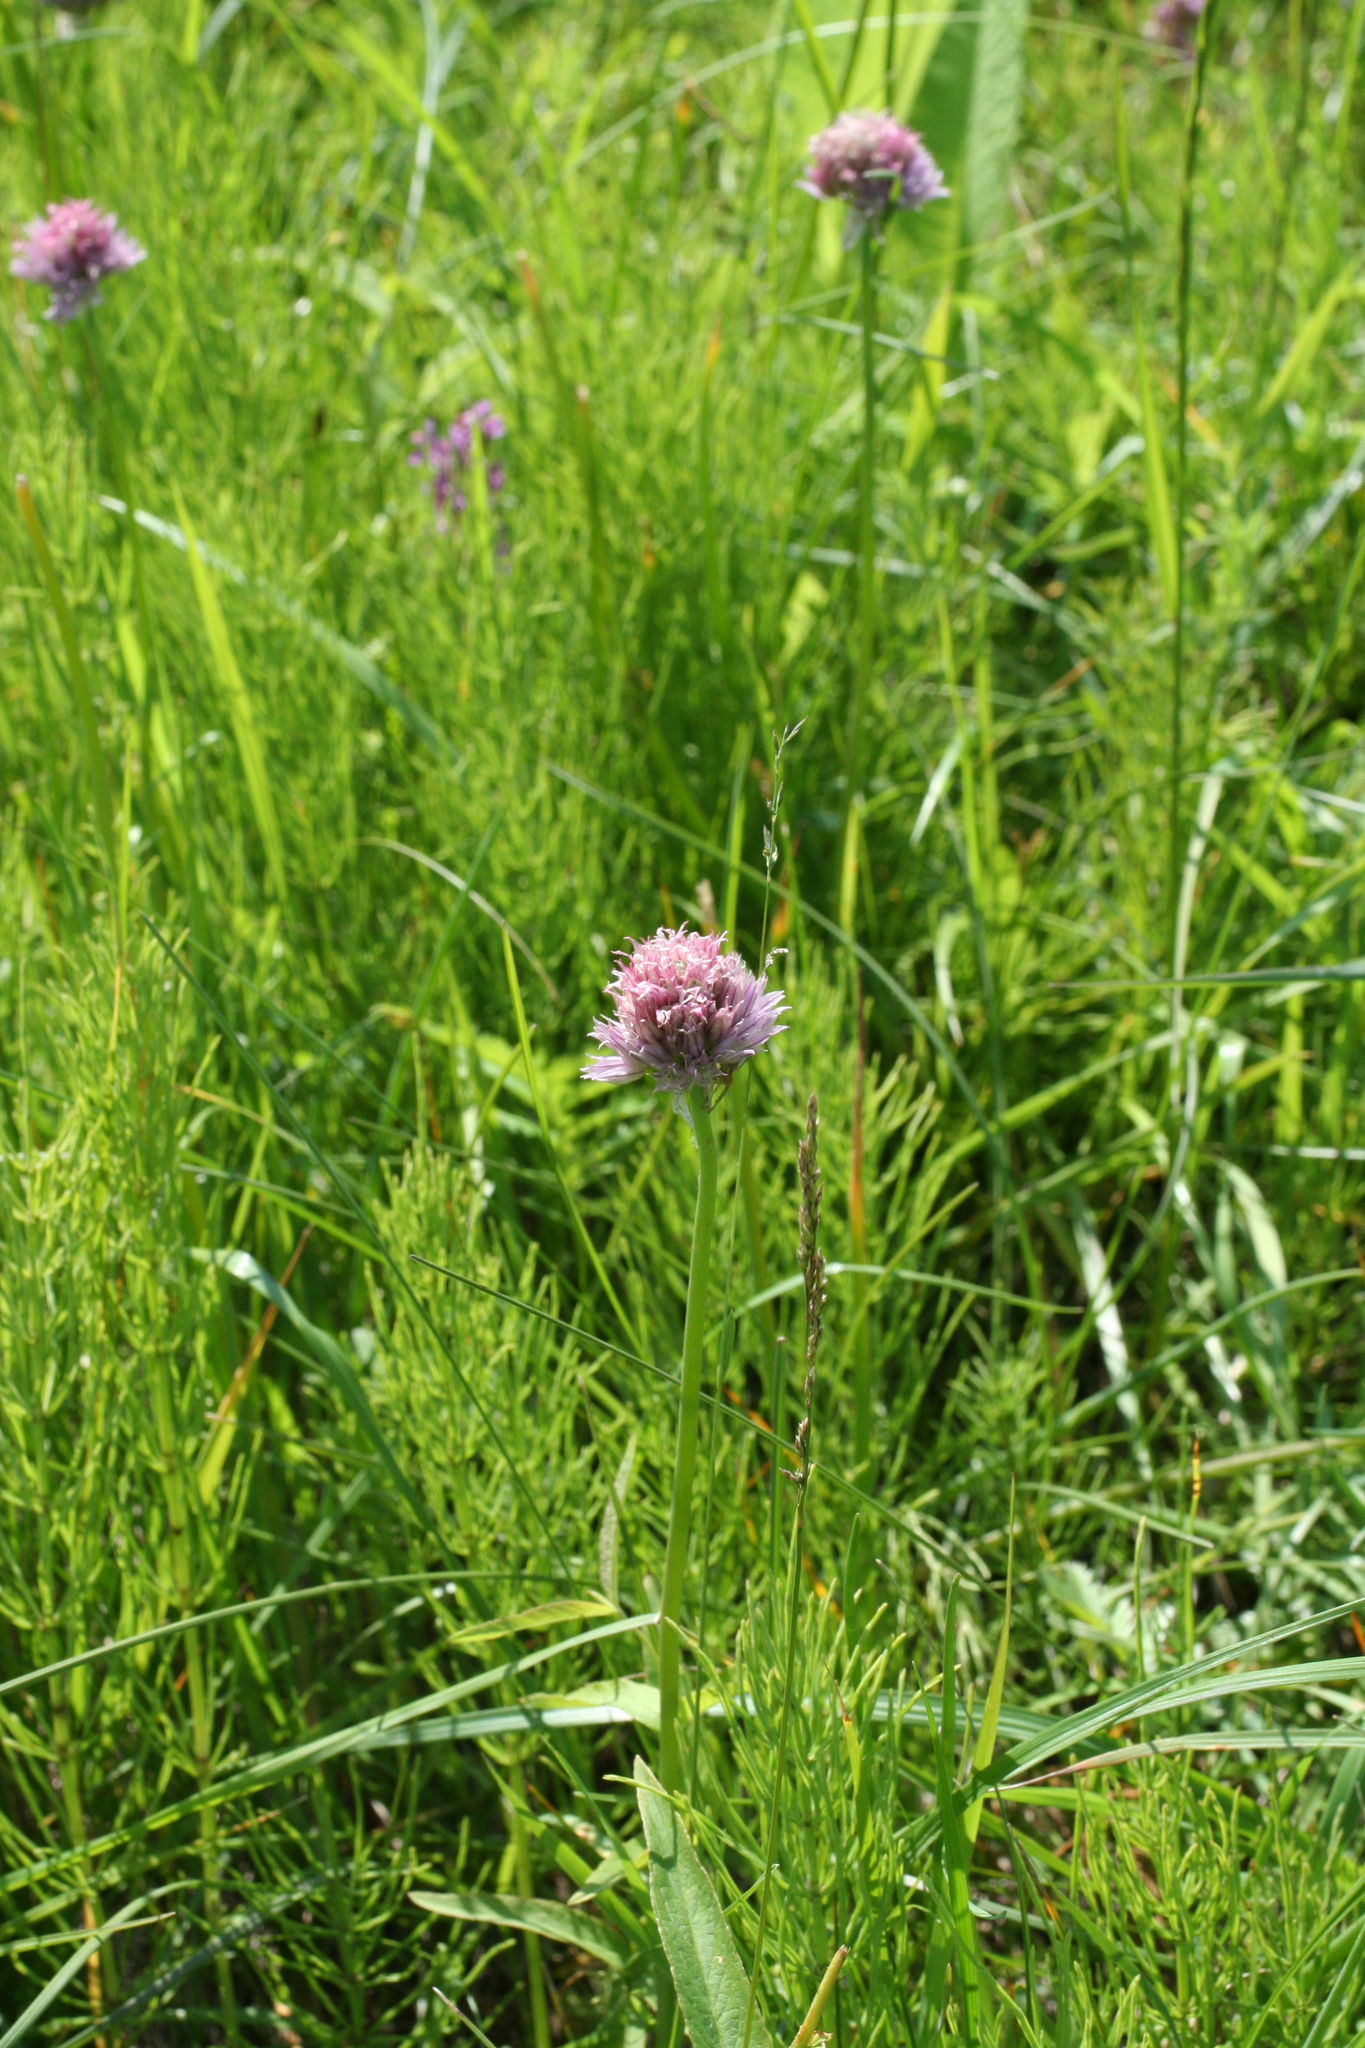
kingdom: Plantae
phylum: Tracheophyta
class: Liliopsida
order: Asparagales
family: Amaryllidaceae
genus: Allium
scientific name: Allium schoenoprasum
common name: Chives
